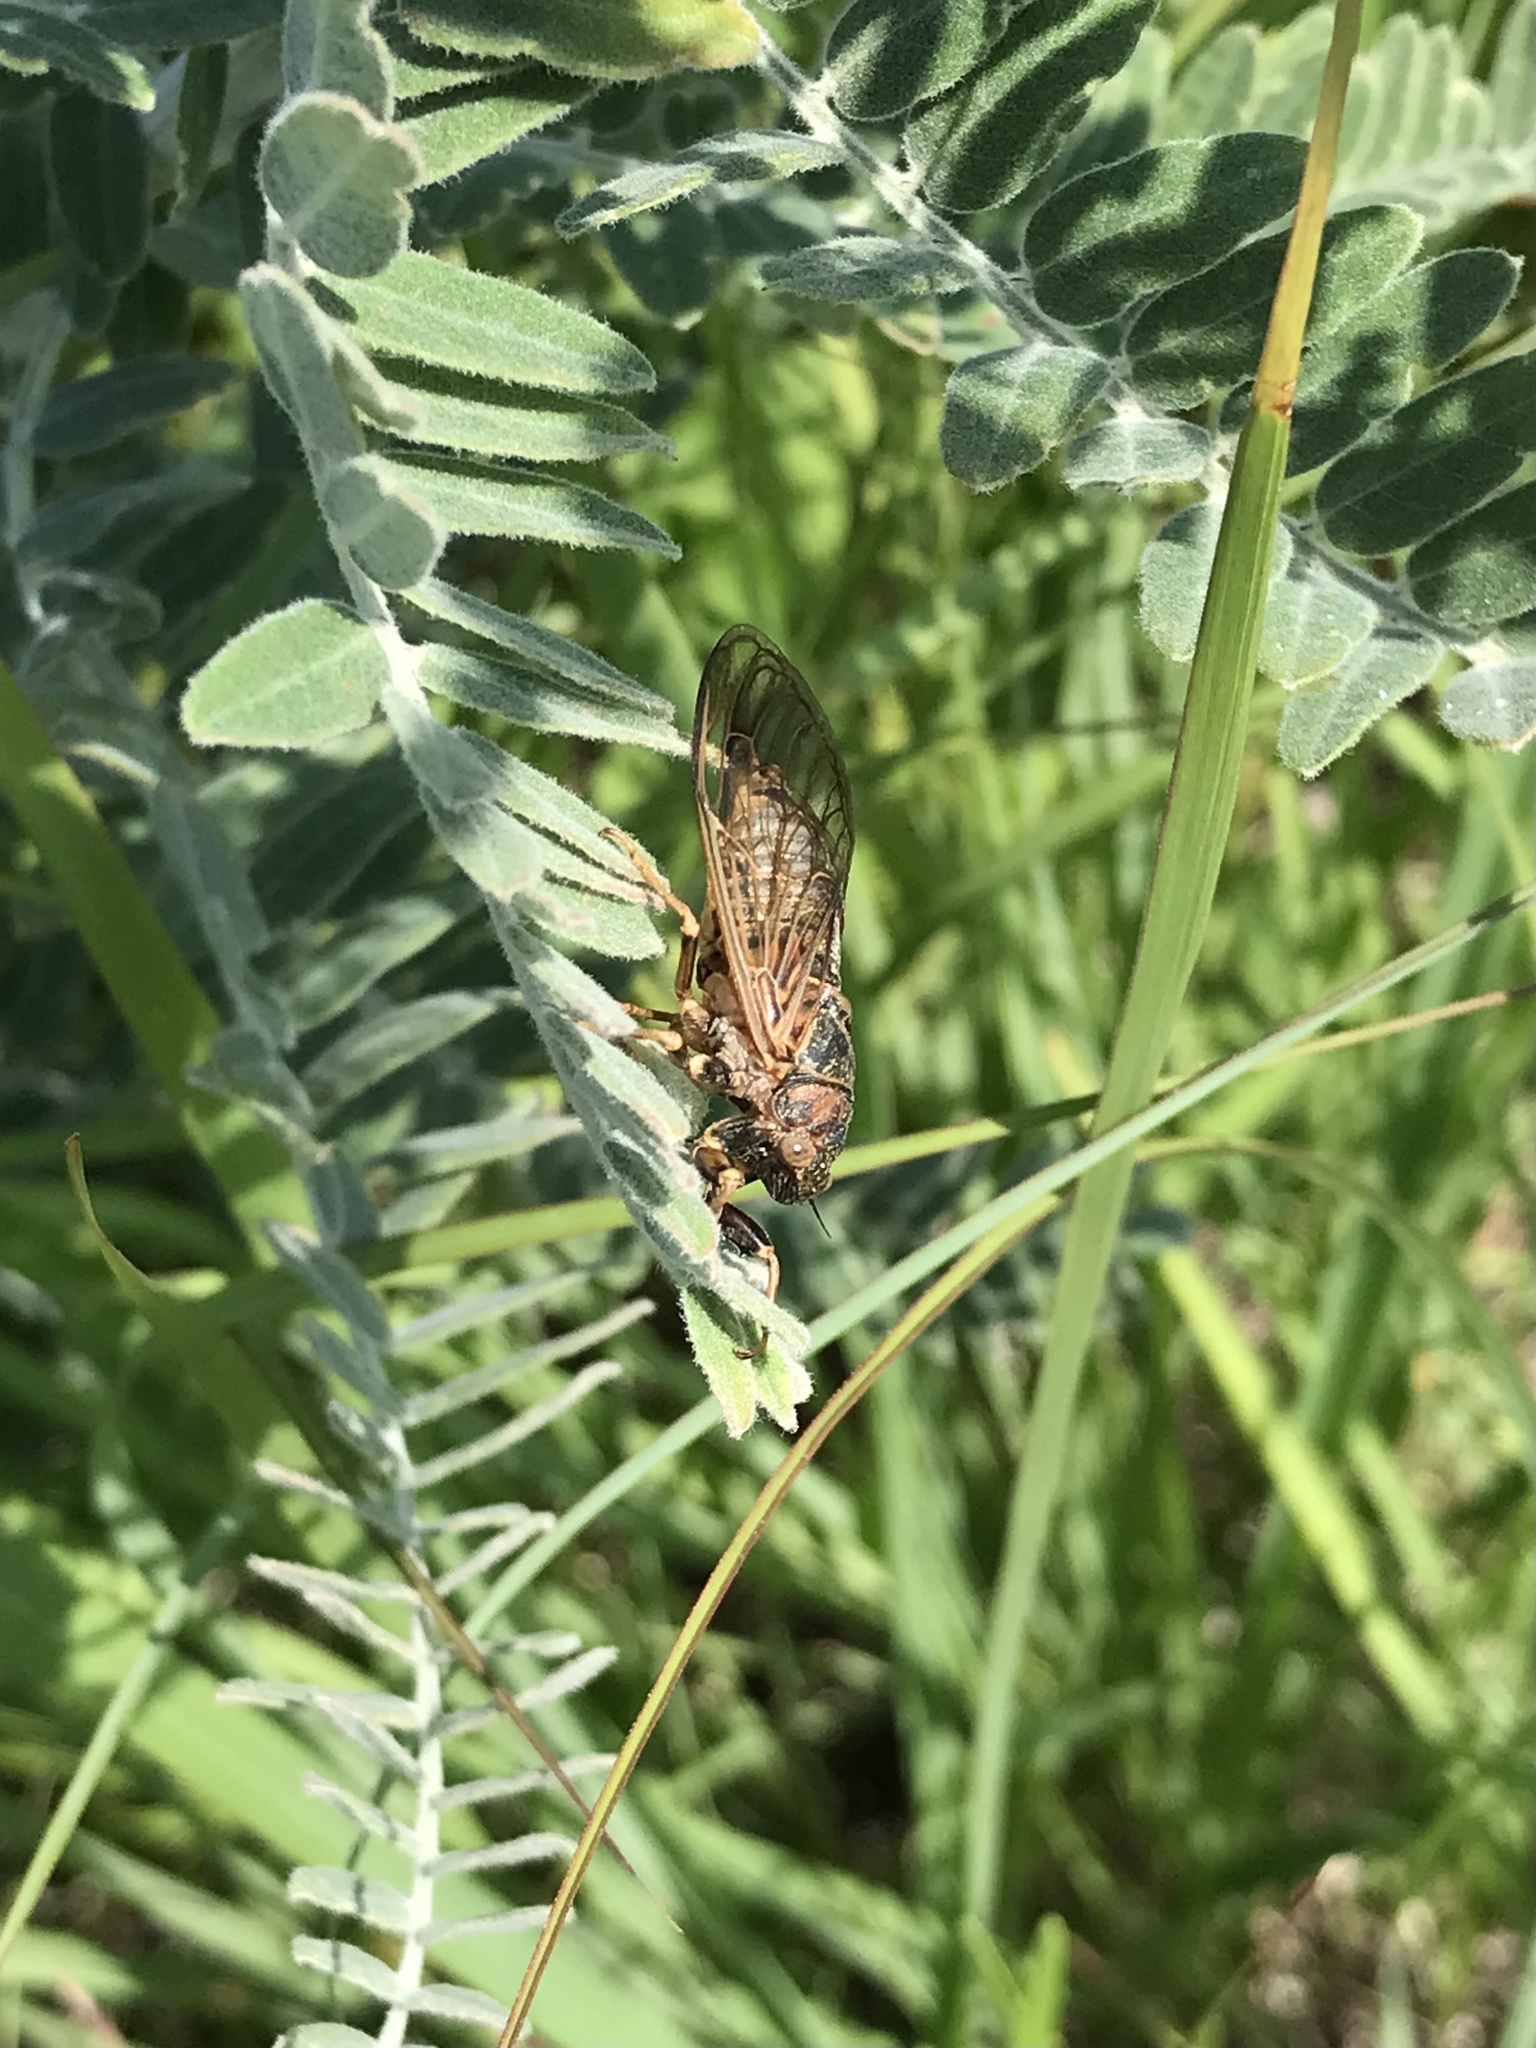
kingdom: Animalia
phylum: Arthropoda
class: Insecta
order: Hemiptera
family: Cicadidae
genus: Okanagana
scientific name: Okanagana balli
